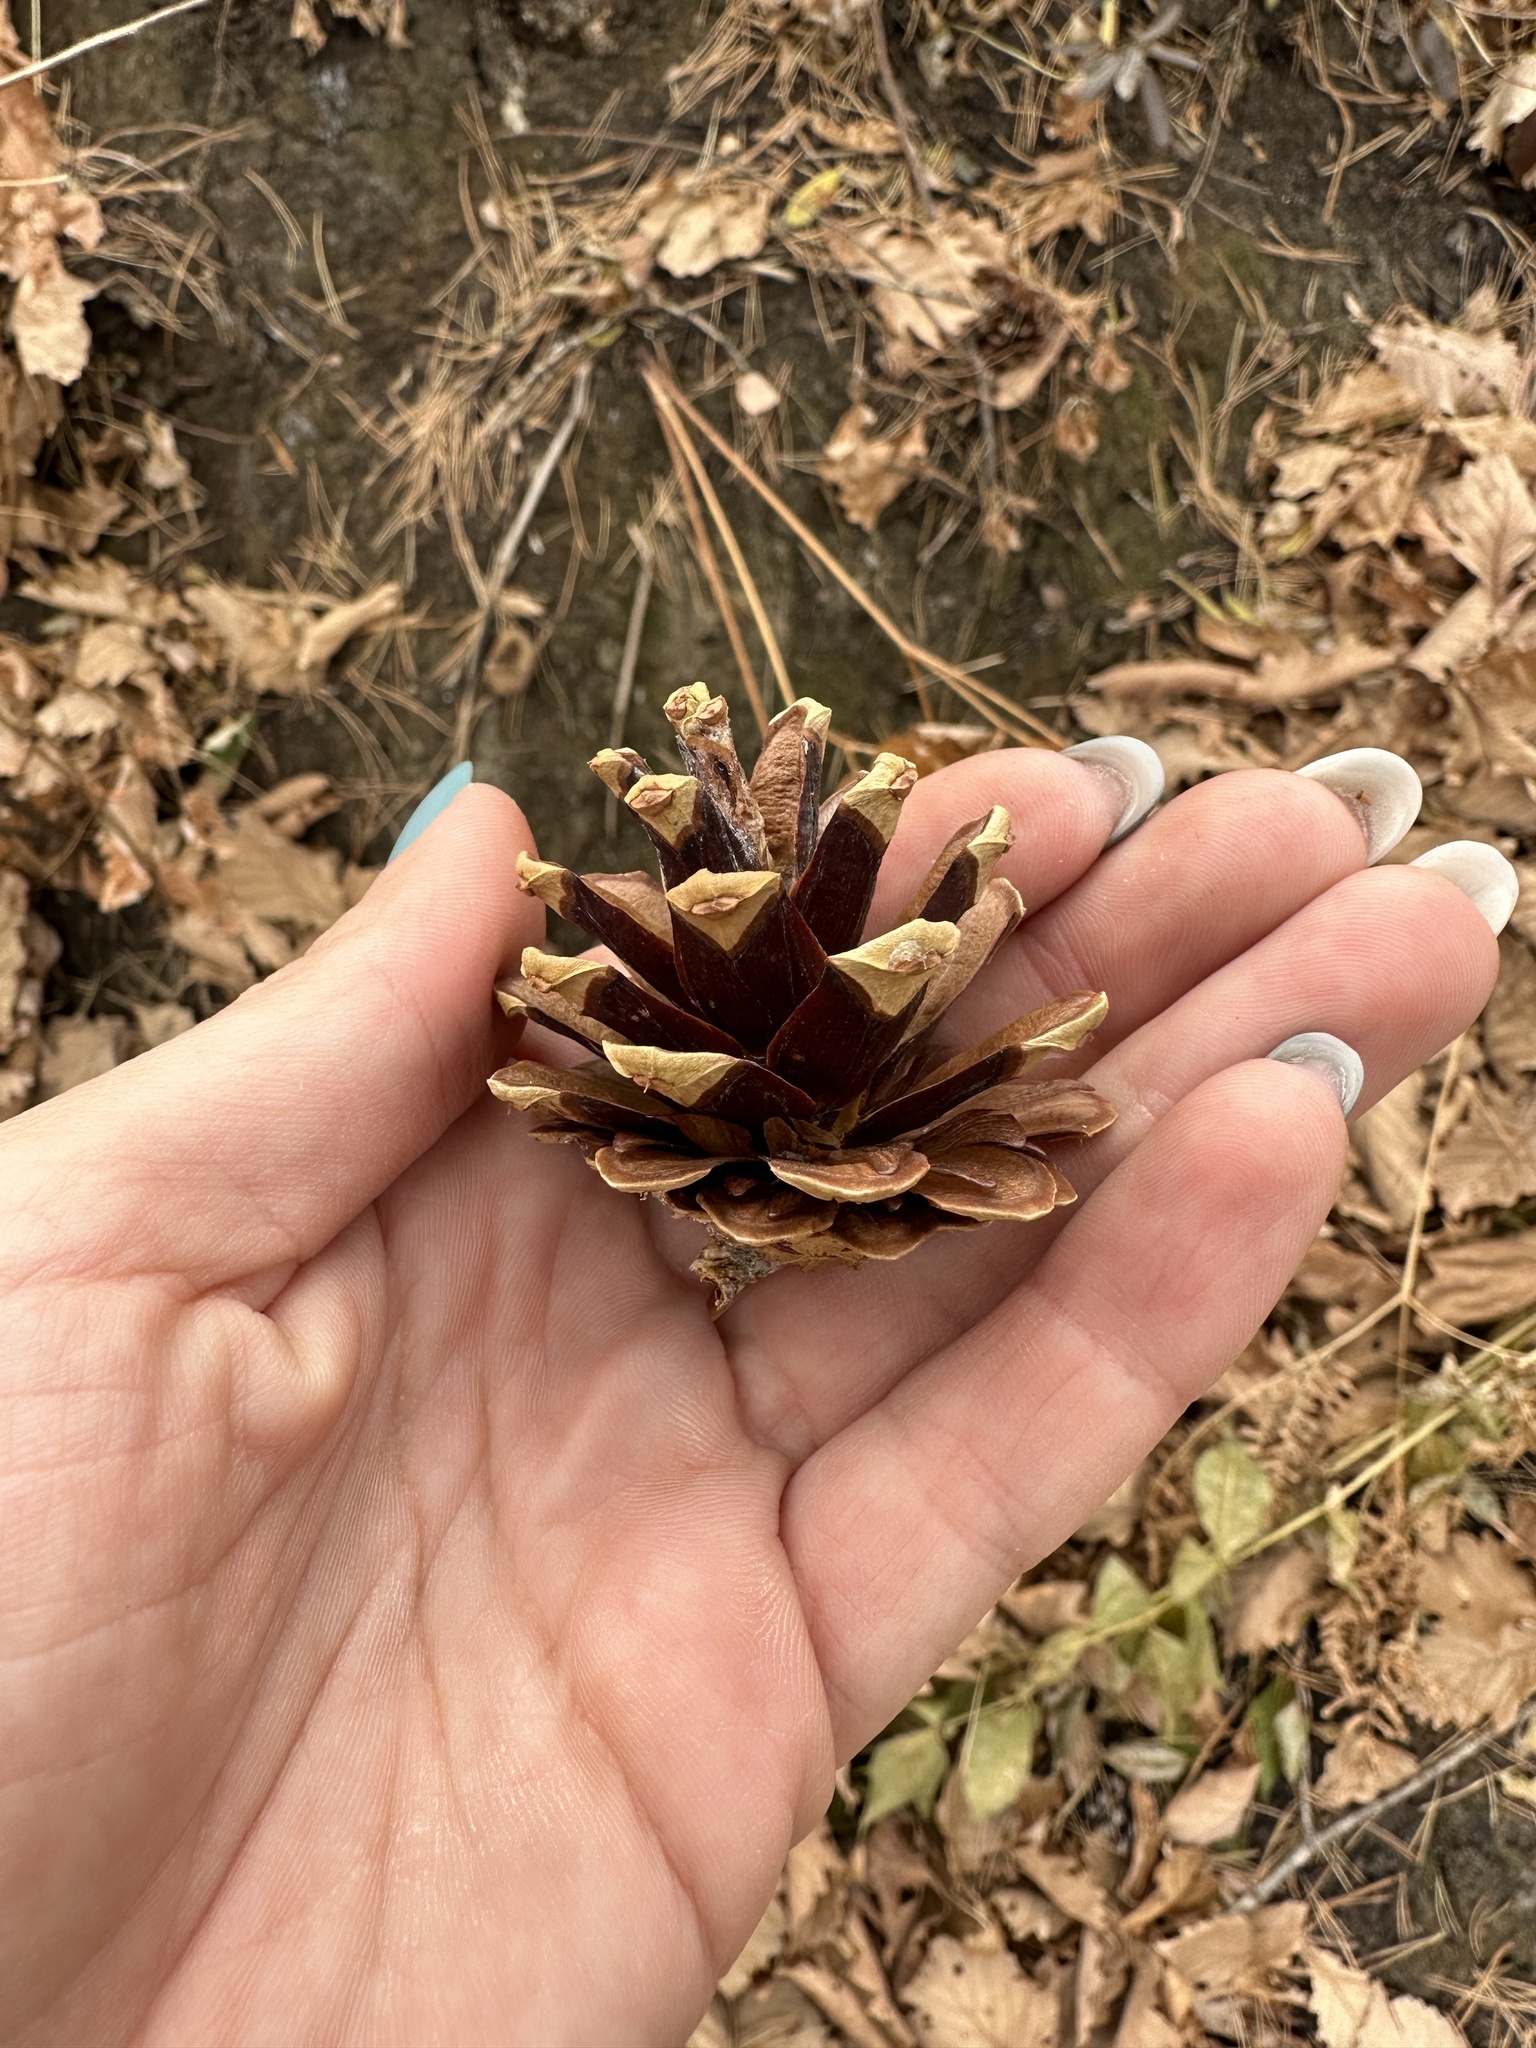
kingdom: Plantae
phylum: Tracheophyta
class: Pinopsida
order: Pinales
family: Pinaceae
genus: Pinus
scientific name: Pinus densiflora
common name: Japanese red pine
